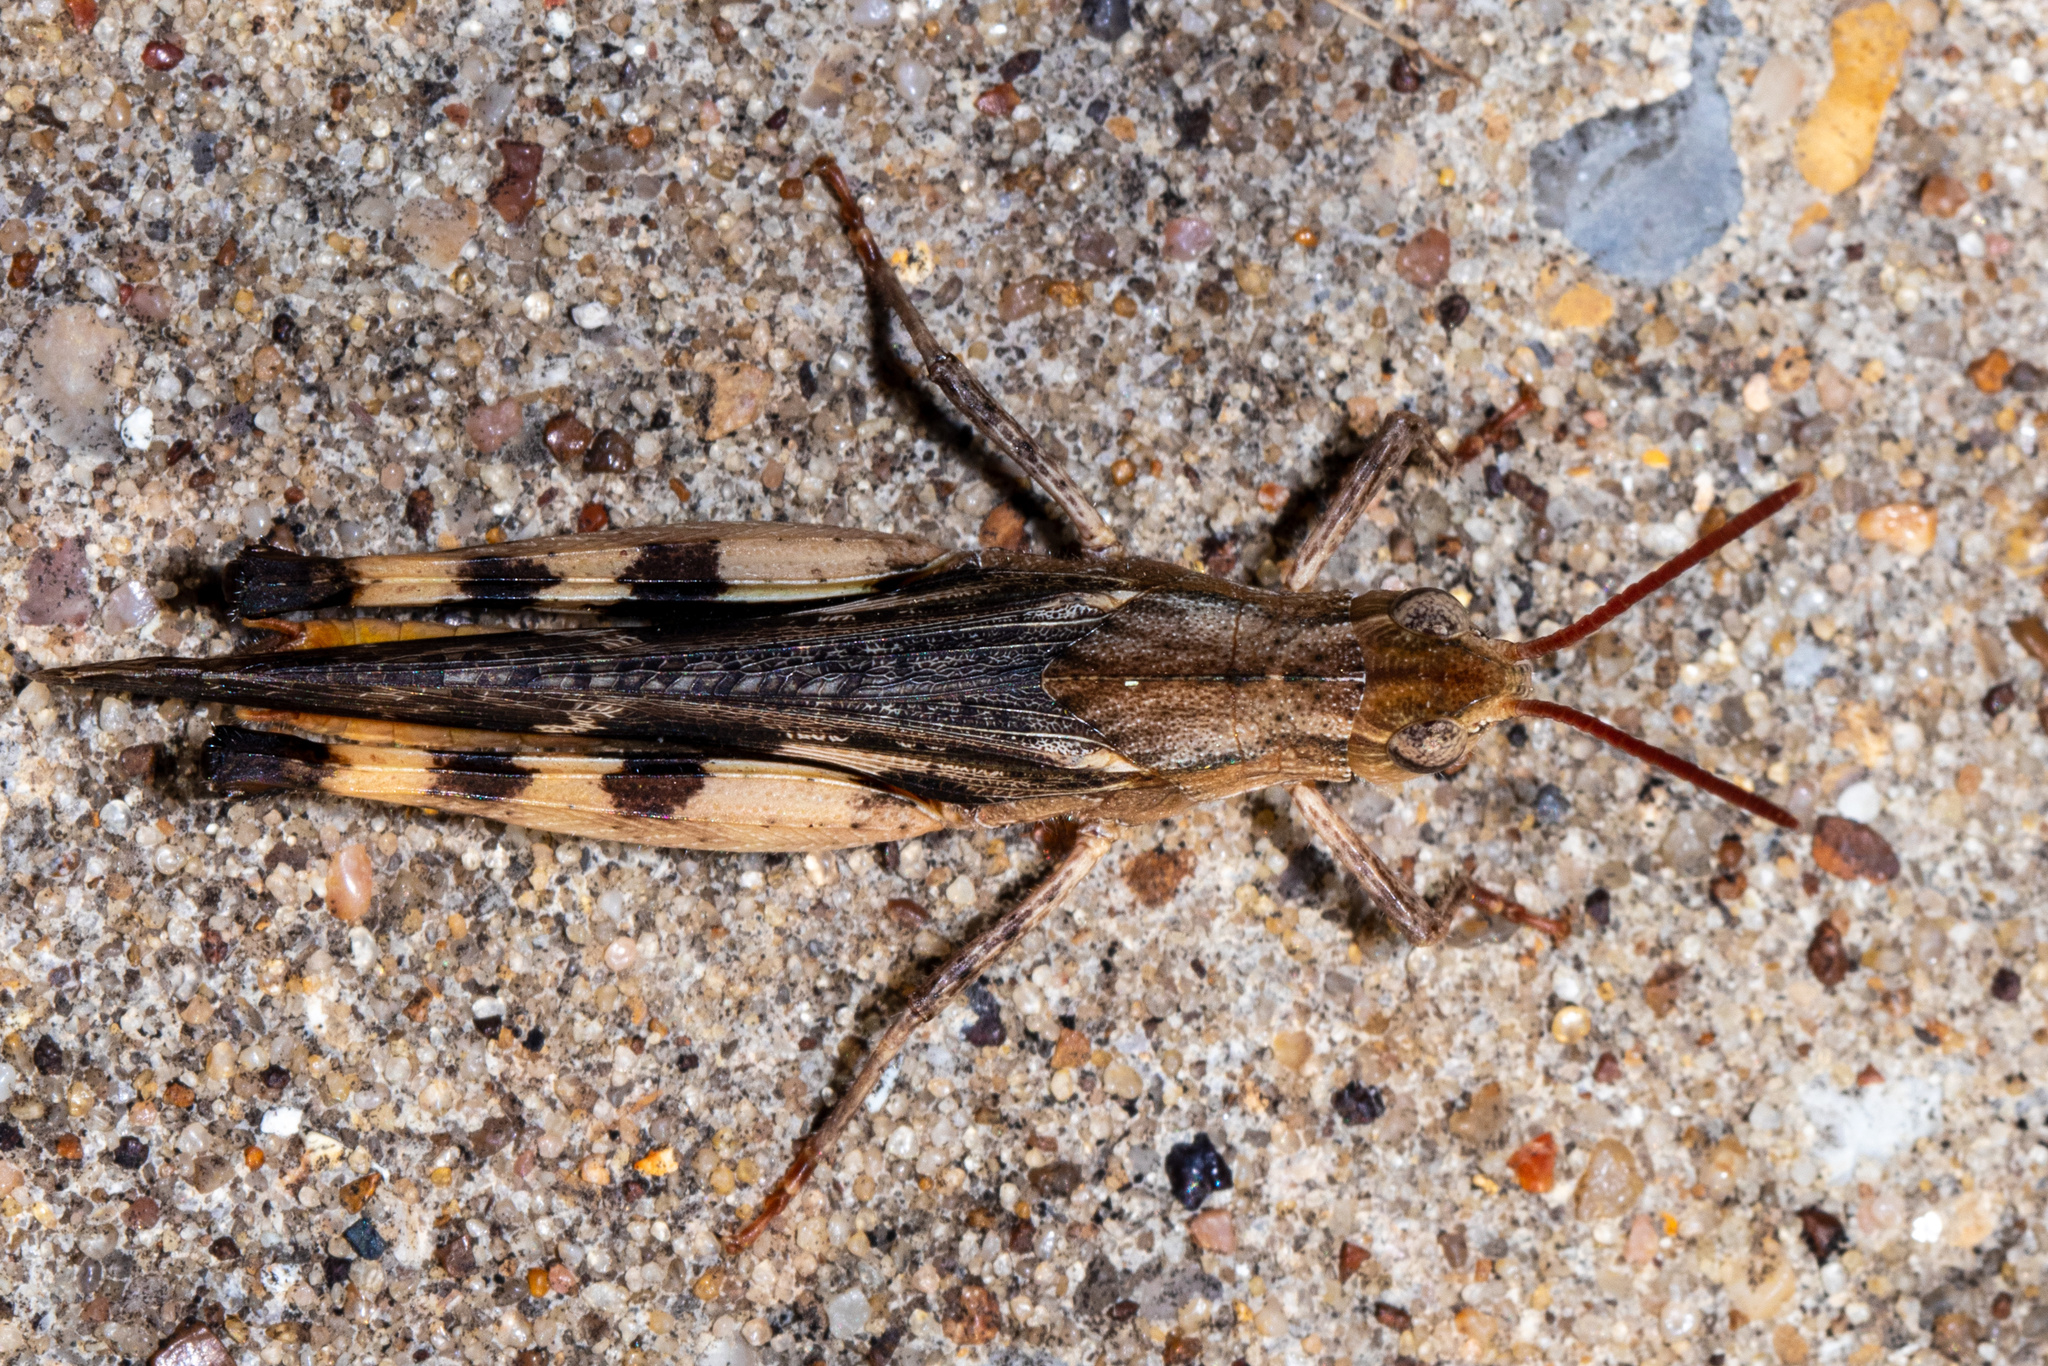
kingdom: Animalia
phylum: Arthropoda
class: Insecta
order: Orthoptera
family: Acrididae
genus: Chortophaga
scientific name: Chortophaga viridifasciata
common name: Green-striped grasshopper
